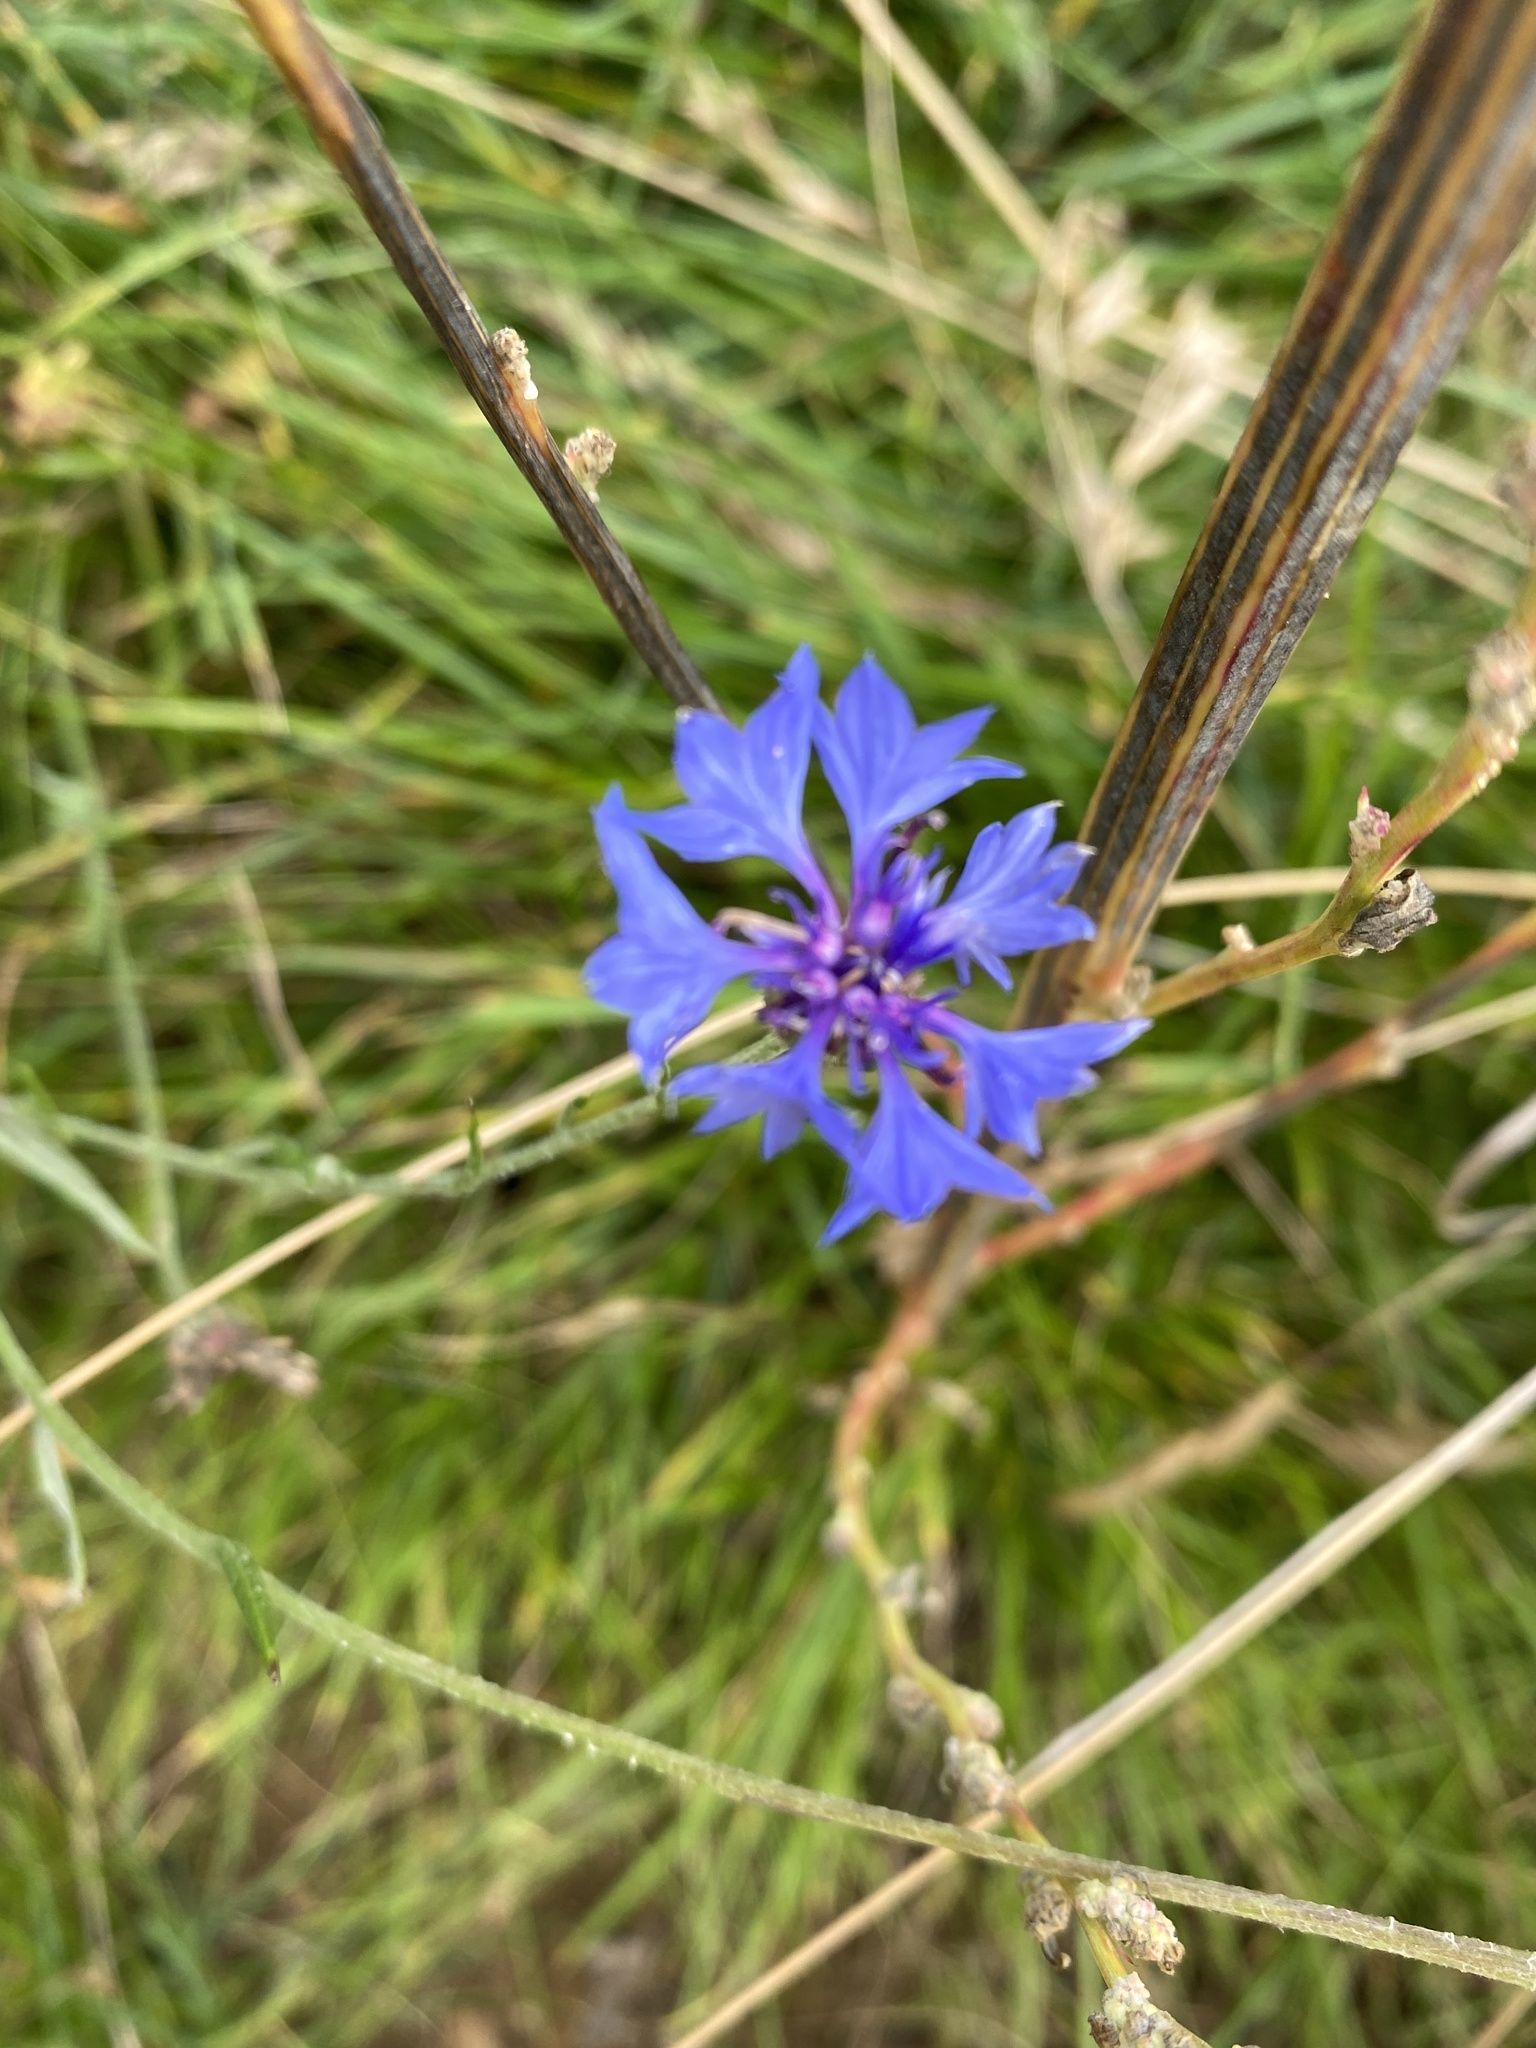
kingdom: Plantae
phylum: Tracheophyta
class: Magnoliopsida
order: Asterales
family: Asteraceae
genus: Centaurea
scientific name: Centaurea cyanus
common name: Cornflower
